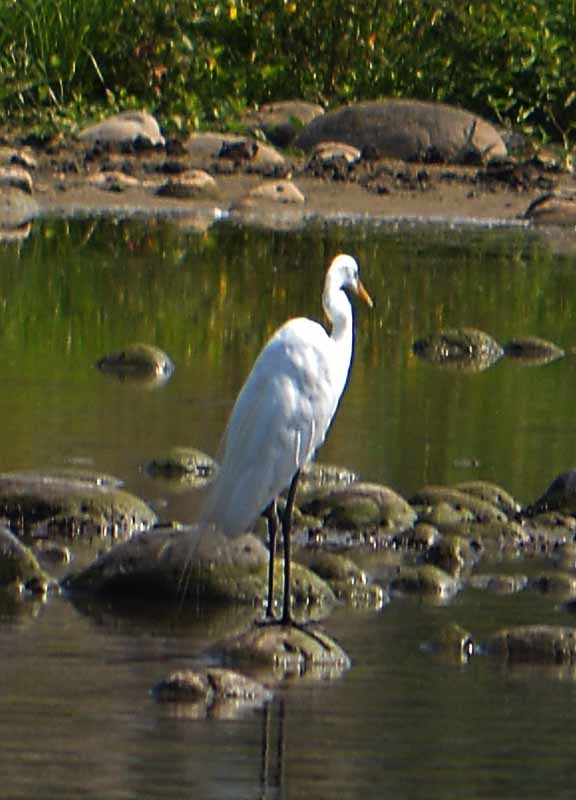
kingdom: Animalia
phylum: Chordata
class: Aves
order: Pelecaniformes
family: Ardeidae
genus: Ardea
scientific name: Ardea alba
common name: Great egret
